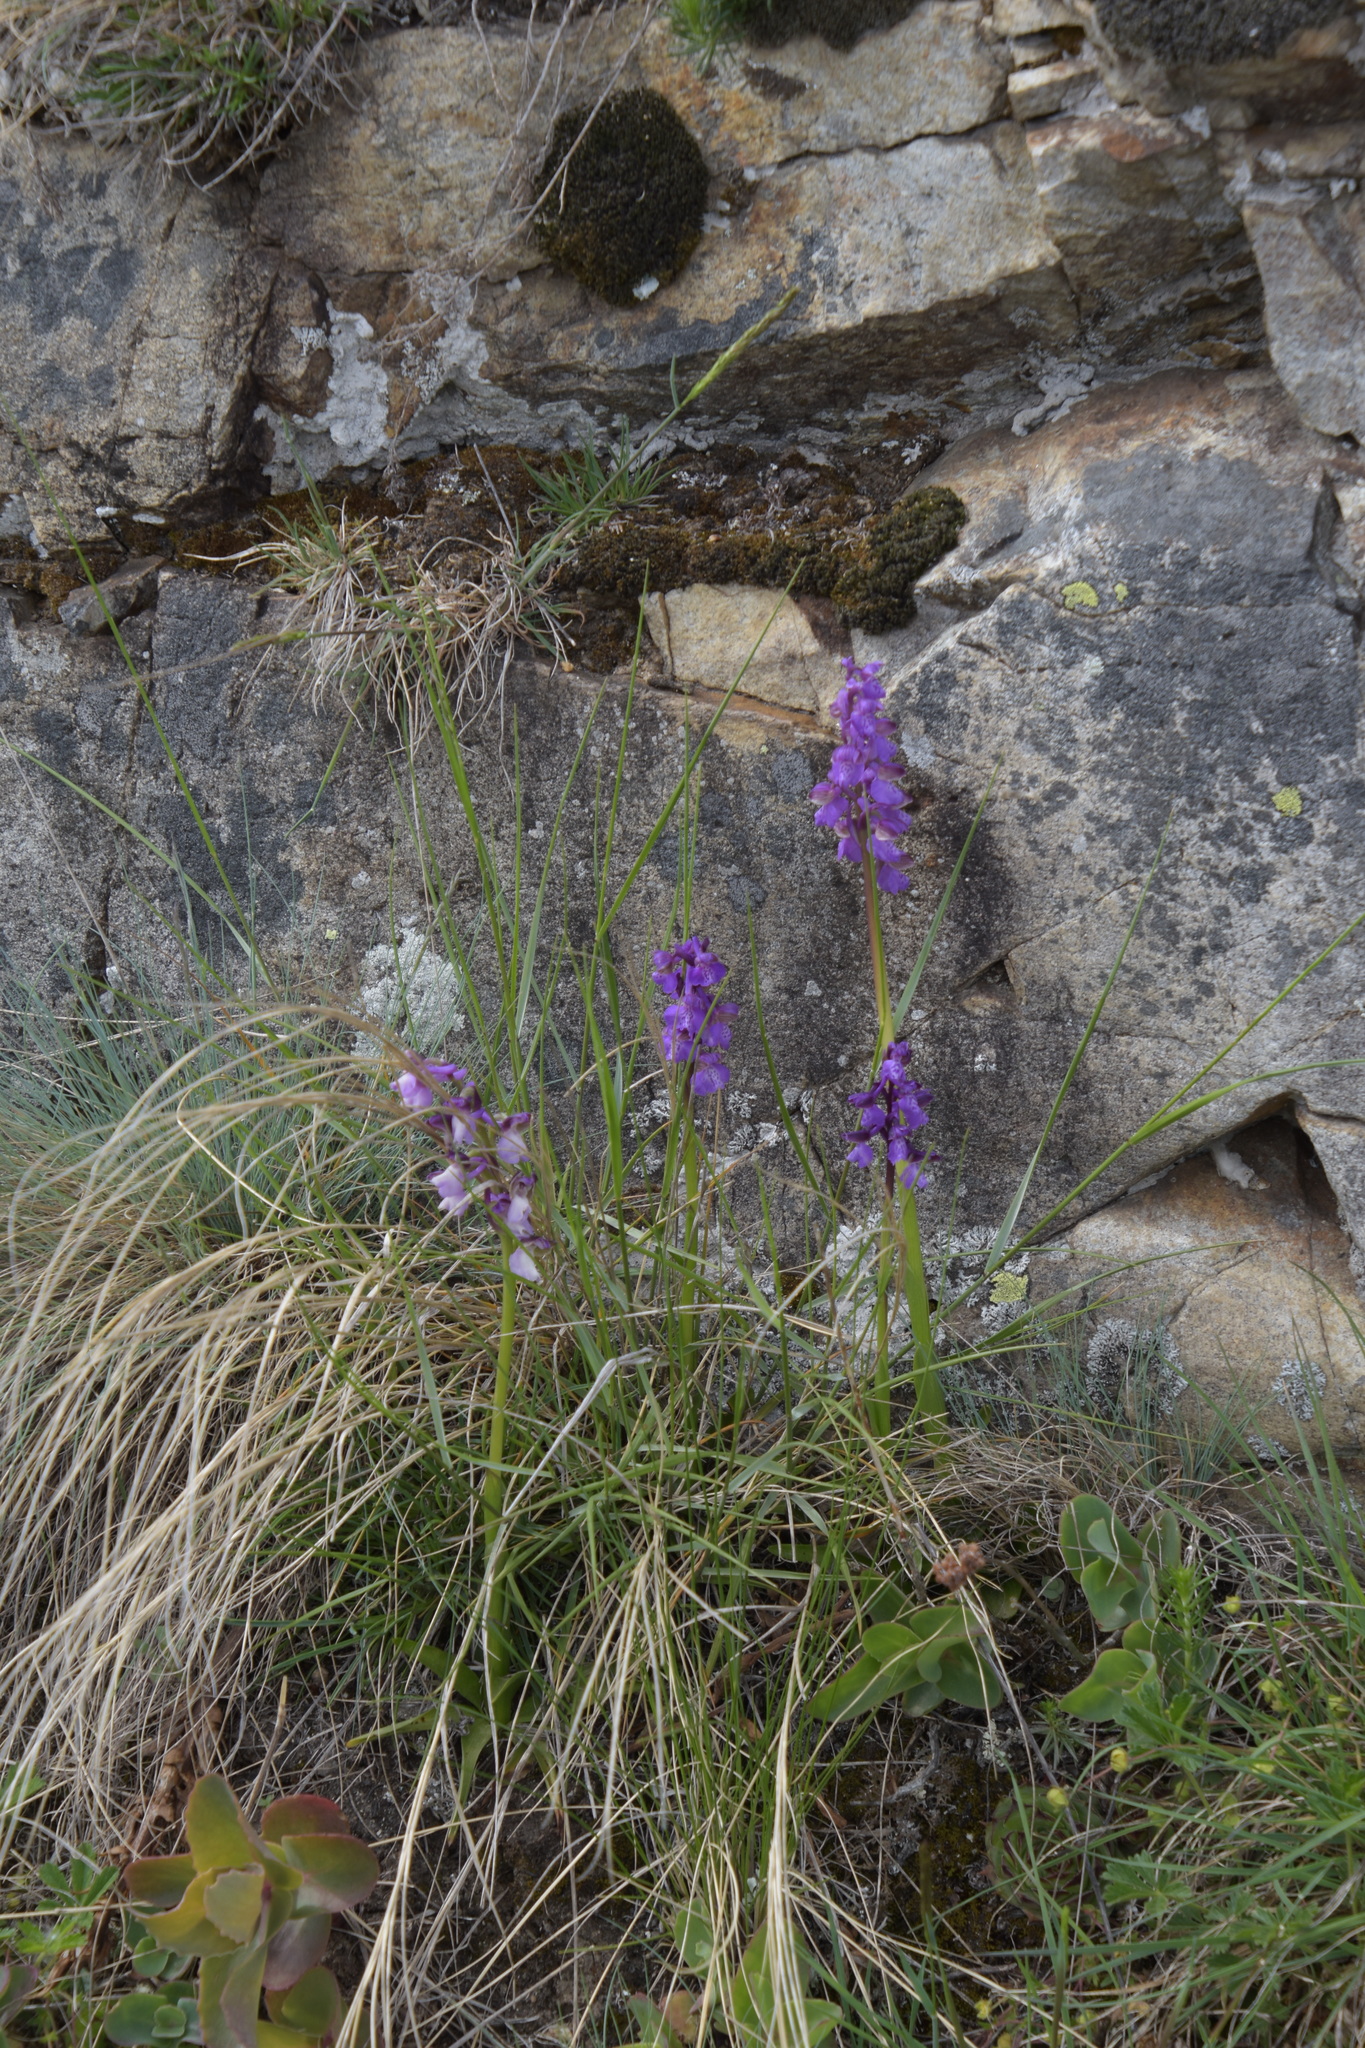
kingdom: Plantae
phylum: Tracheophyta
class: Liliopsida
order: Asparagales
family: Orchidaceae
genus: Anacamptis
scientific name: Anacamptis morio
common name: Green-winged orchid
